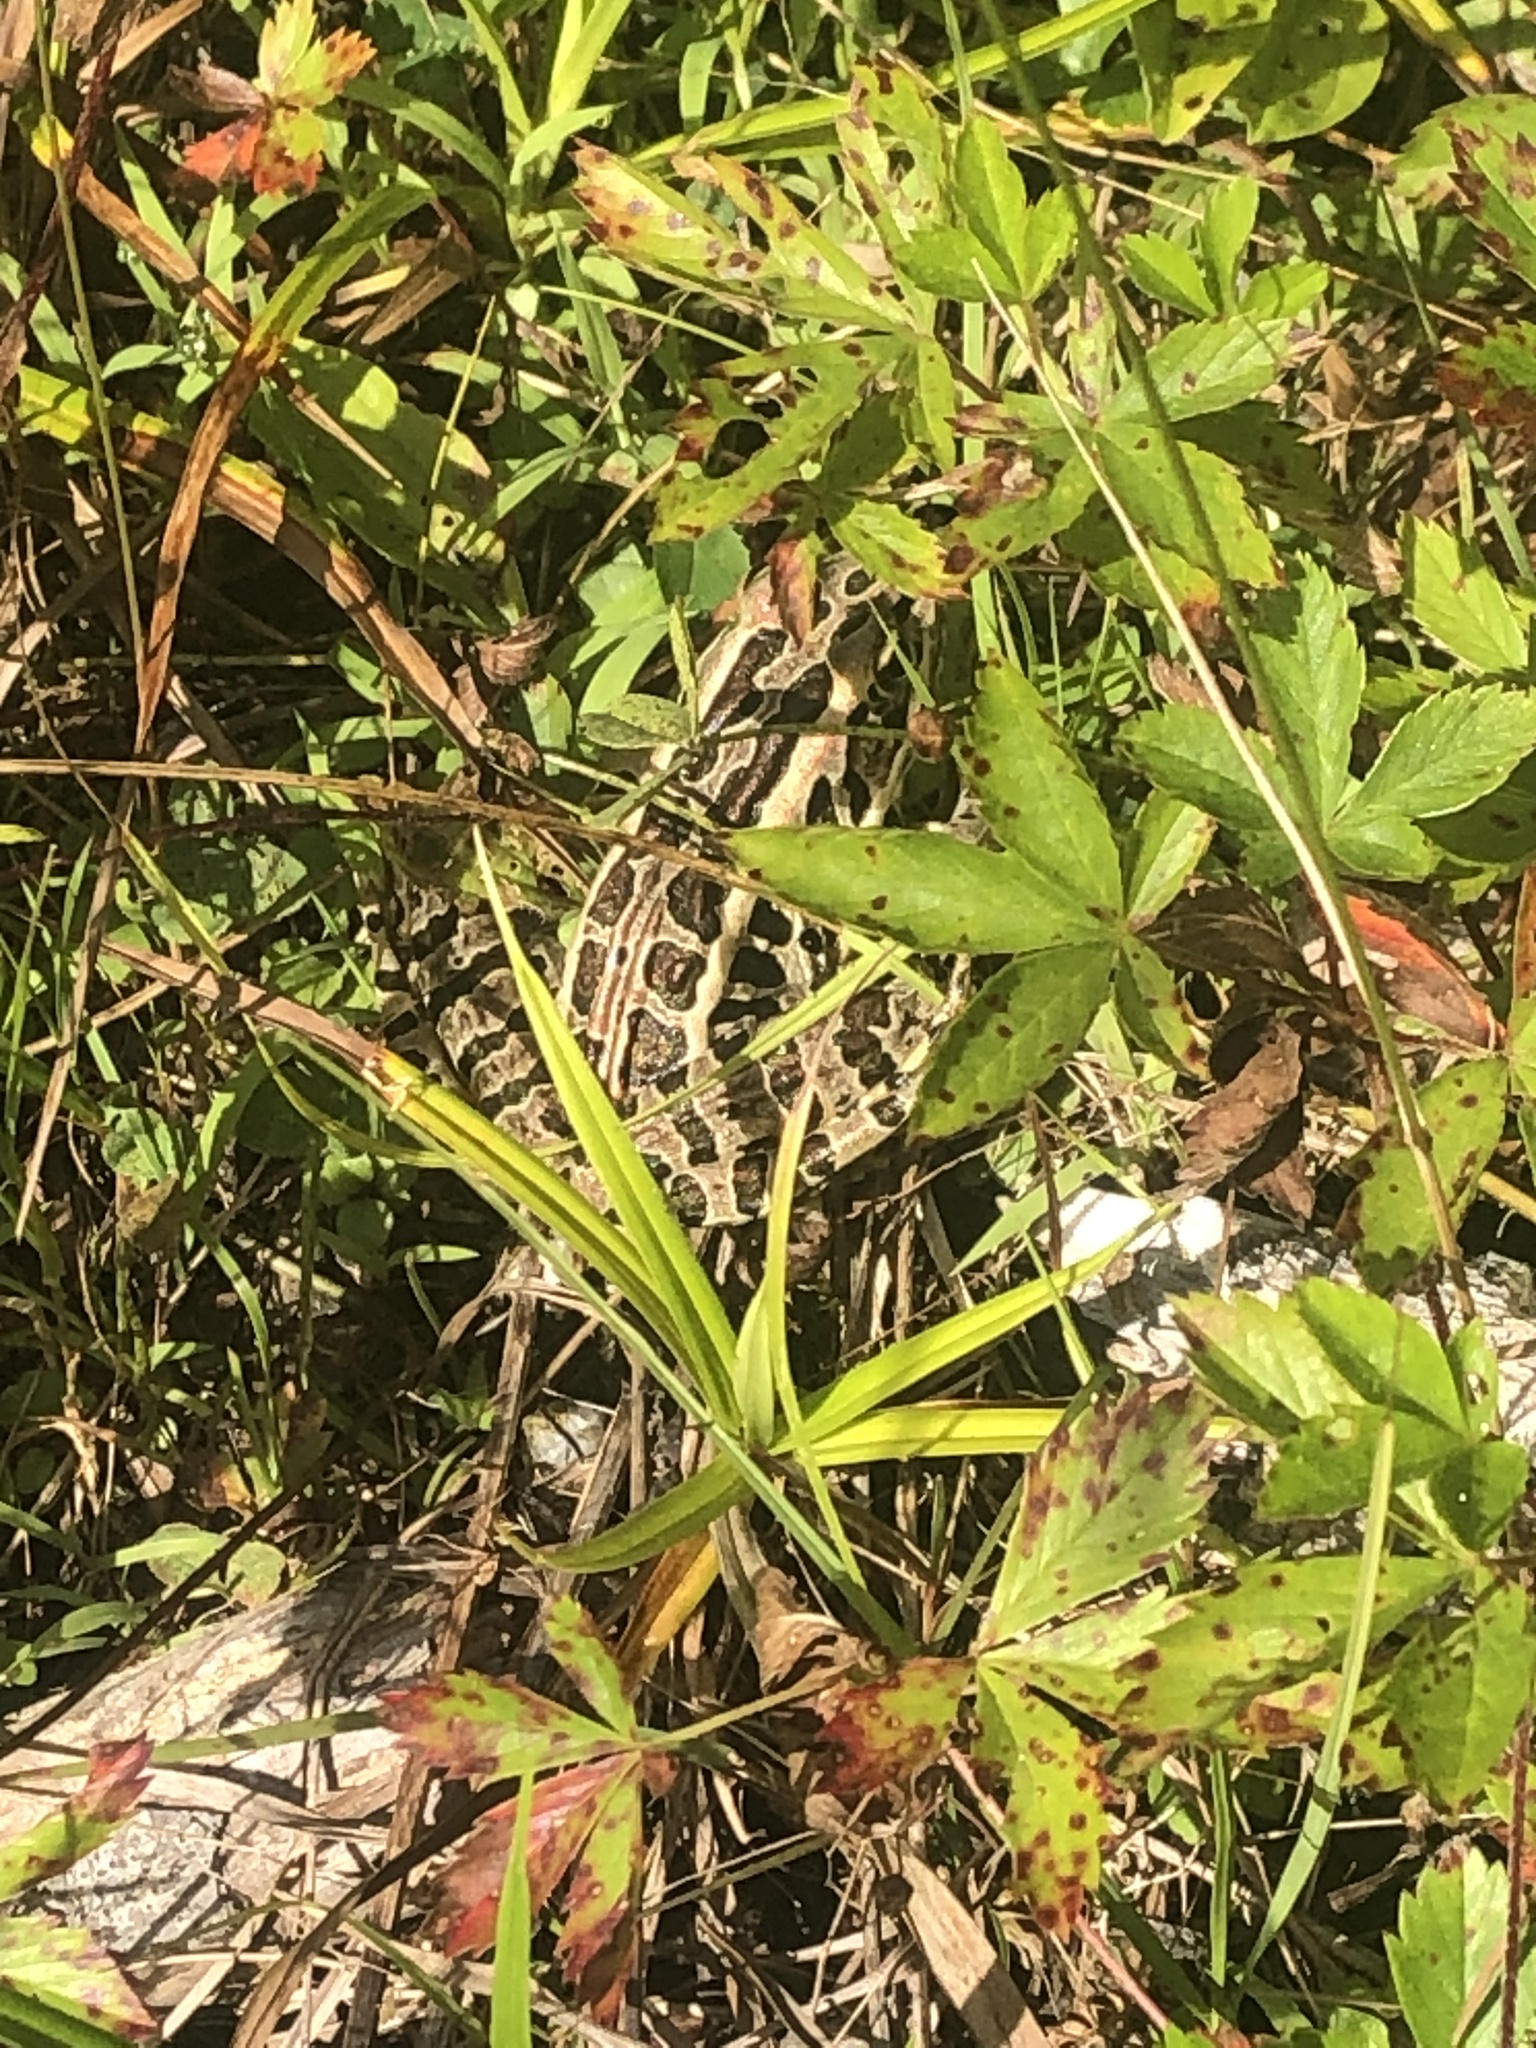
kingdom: Animalia
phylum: Chordata
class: Amphibia
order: Anura
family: Ranidae
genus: Lithobates
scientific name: Lithobates palustris
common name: Pickerel frog
